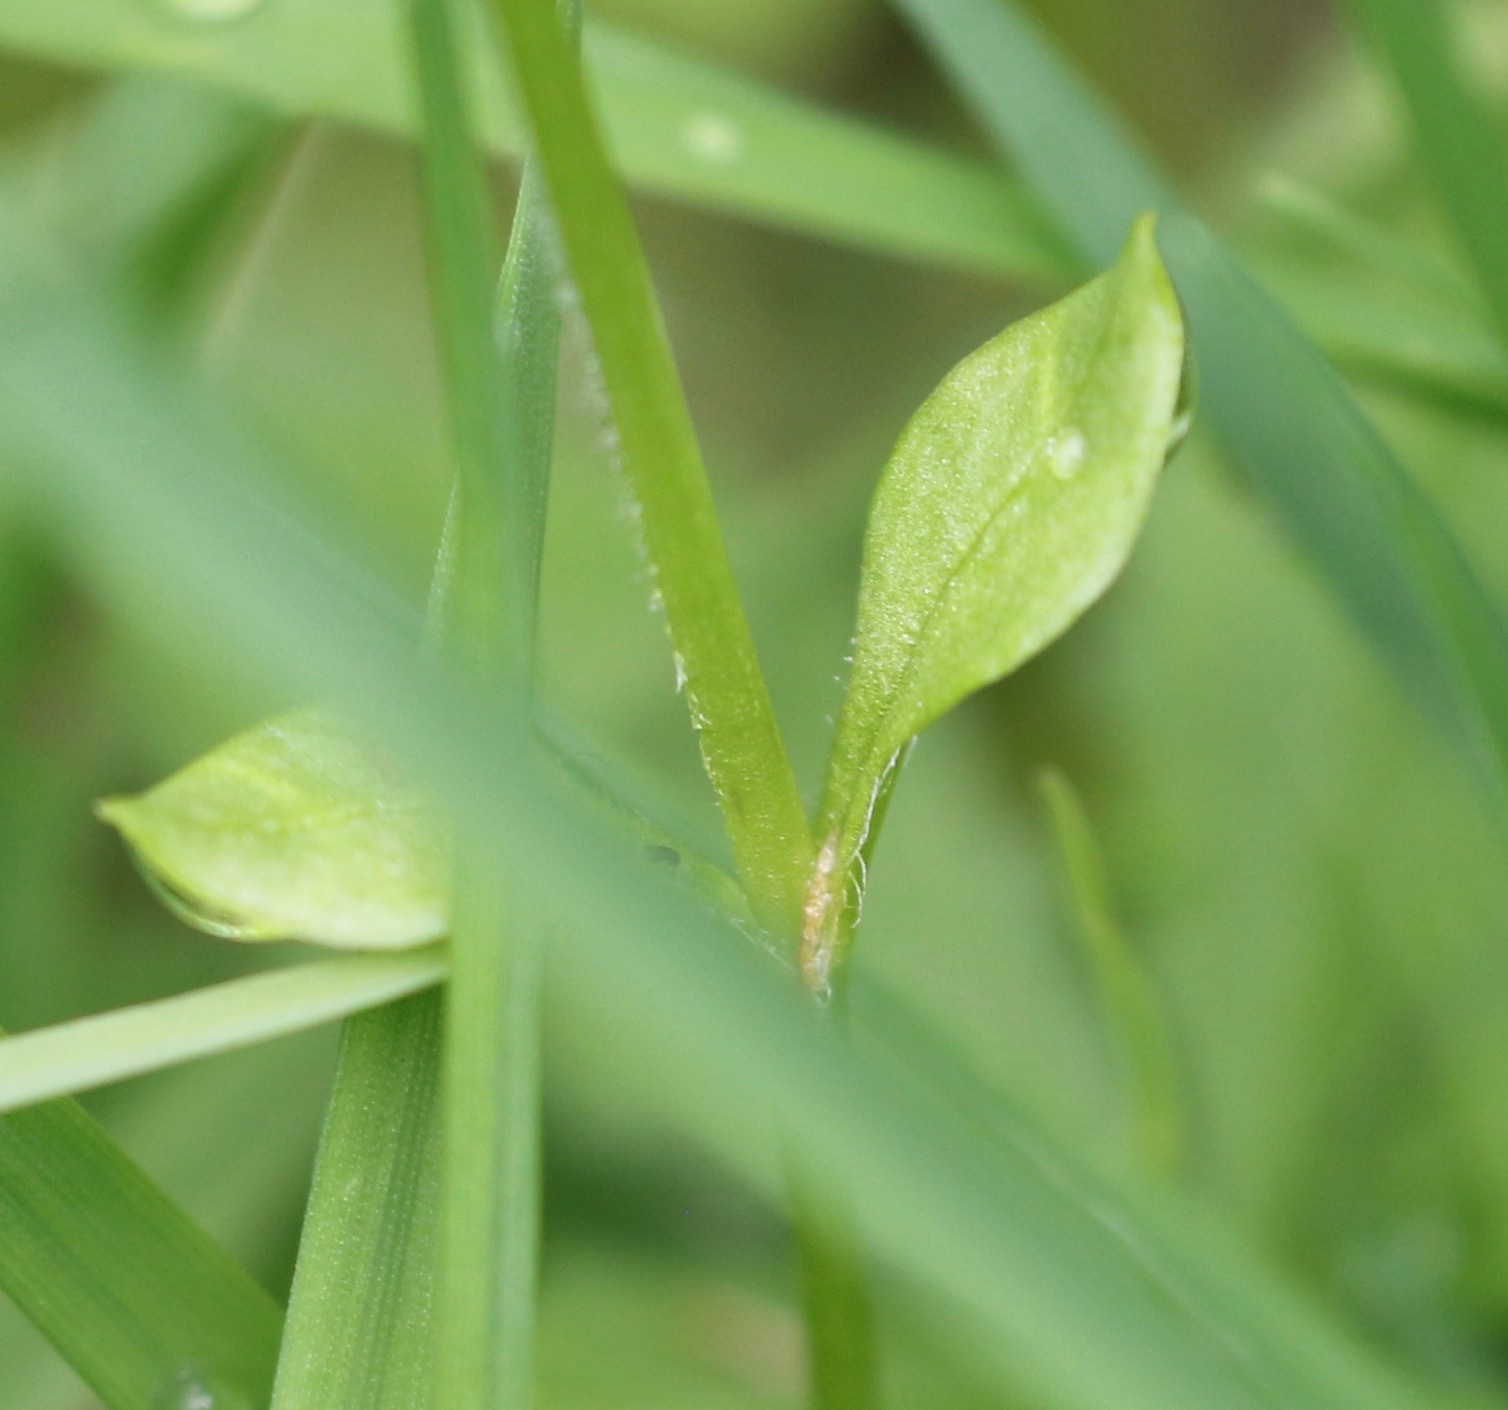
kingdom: Plantae
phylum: Tracheophyta
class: Magnoliopsida
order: Caryophyllales
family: Caryophyllaceae
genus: Stellaria
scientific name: Stellaria media
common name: Common chickweed
